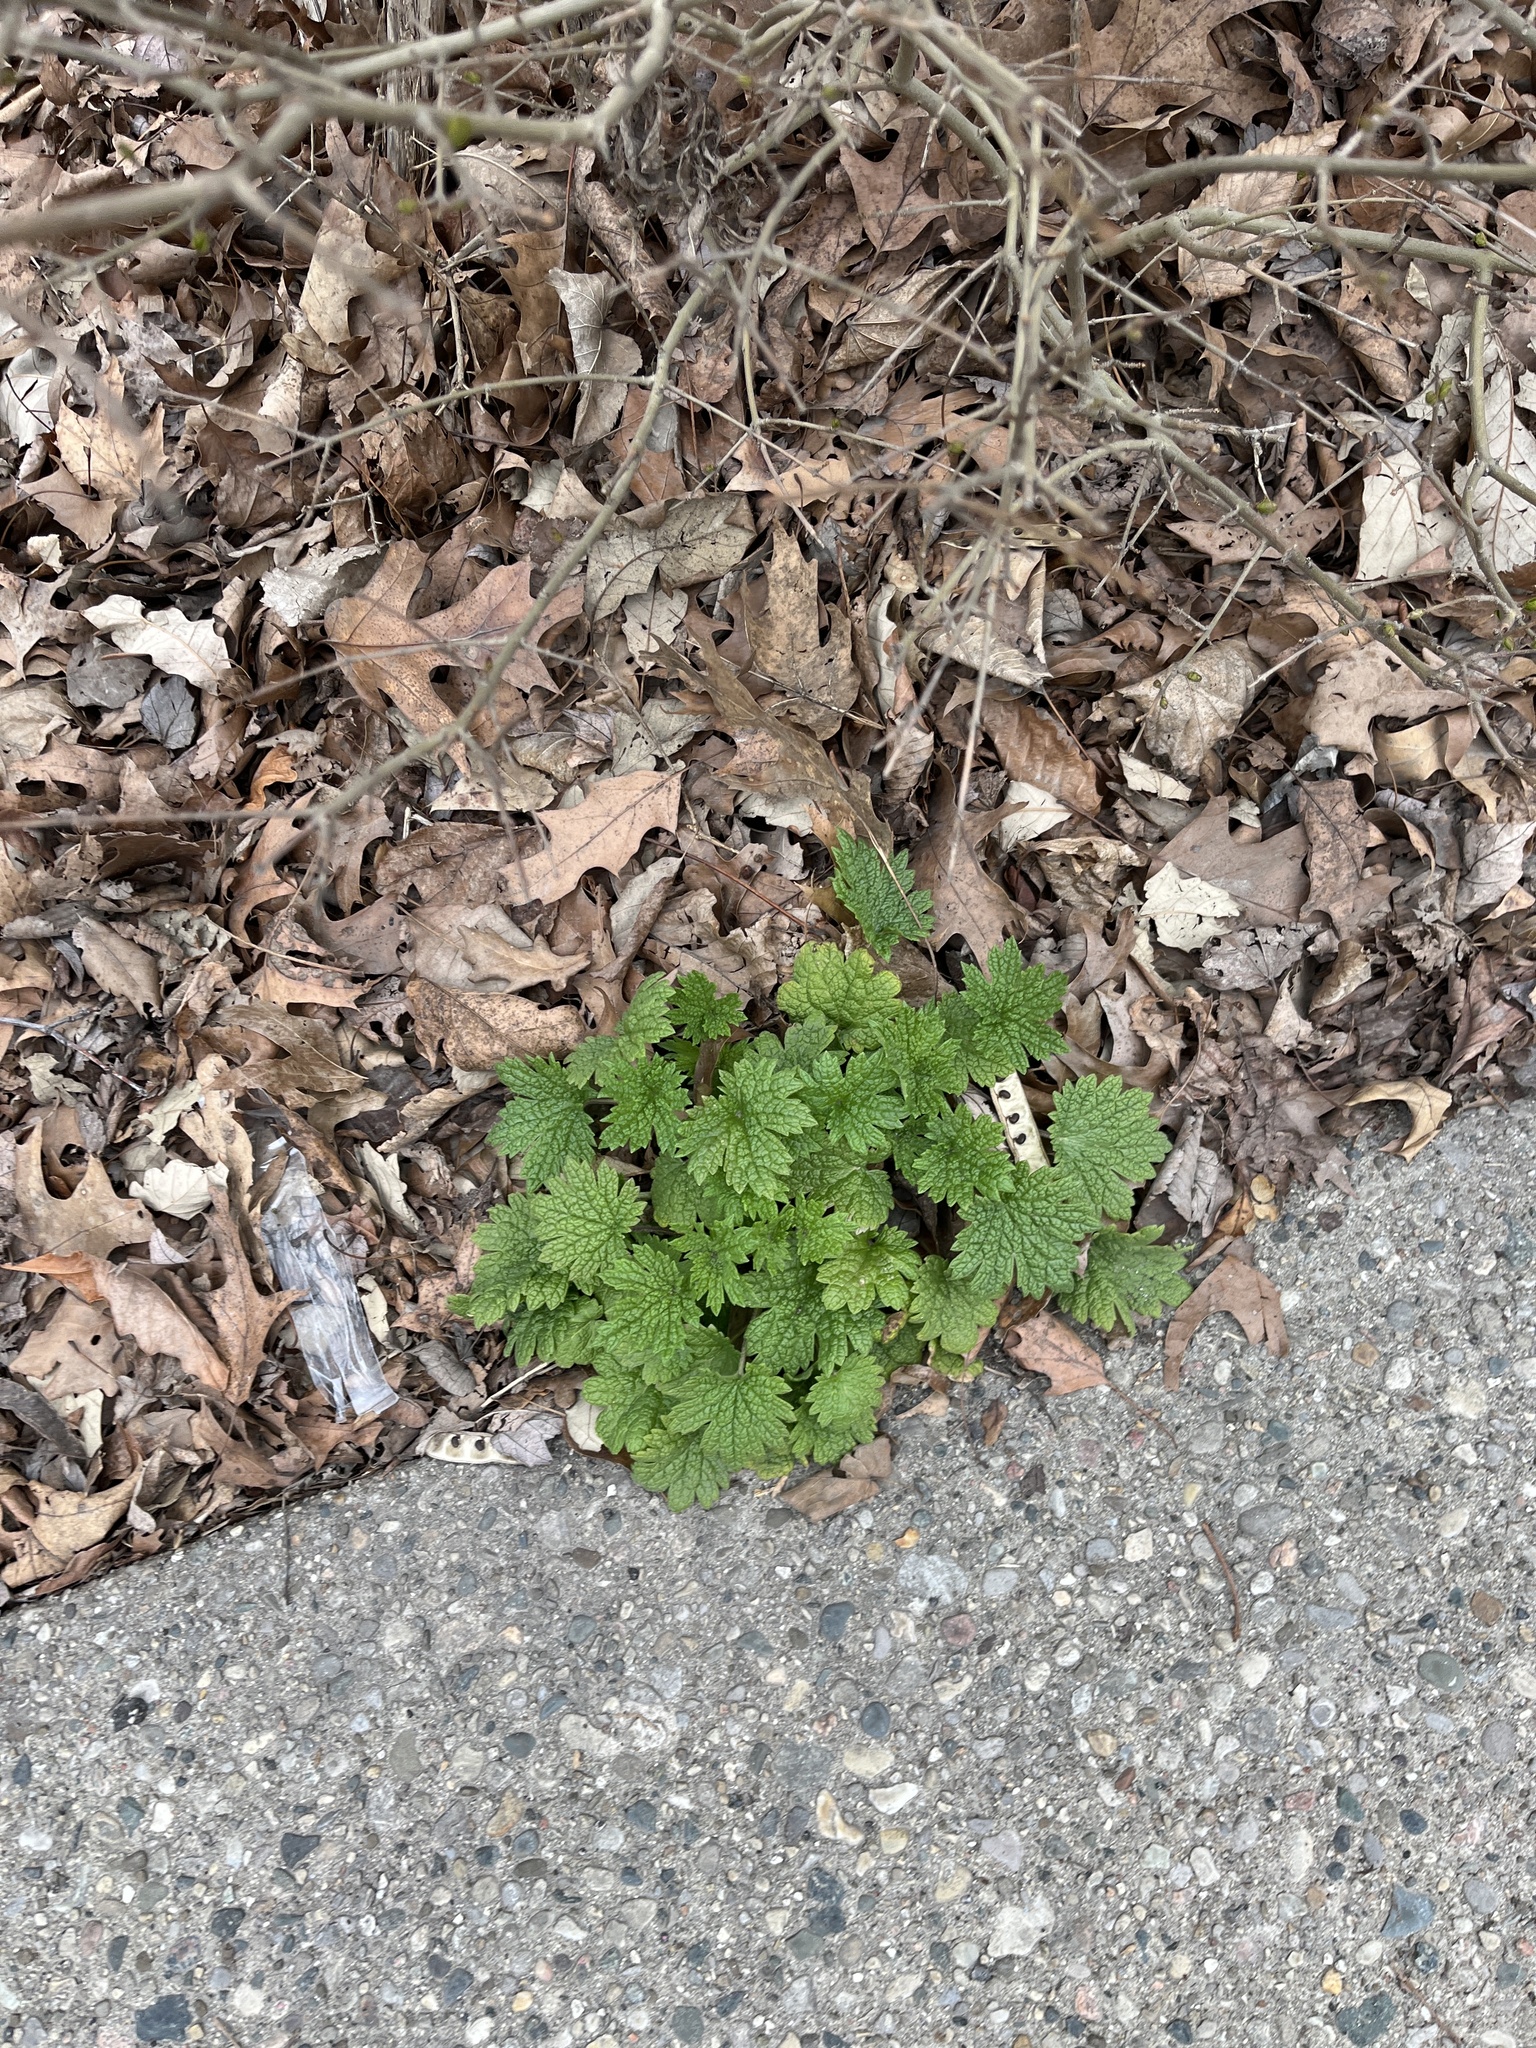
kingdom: Plantae
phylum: Tracheophyta
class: Magnoliopsida
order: Lamiales
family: Lamiaceae
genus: Leonurus
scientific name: Leonurus cardiaca
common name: Motherwort
